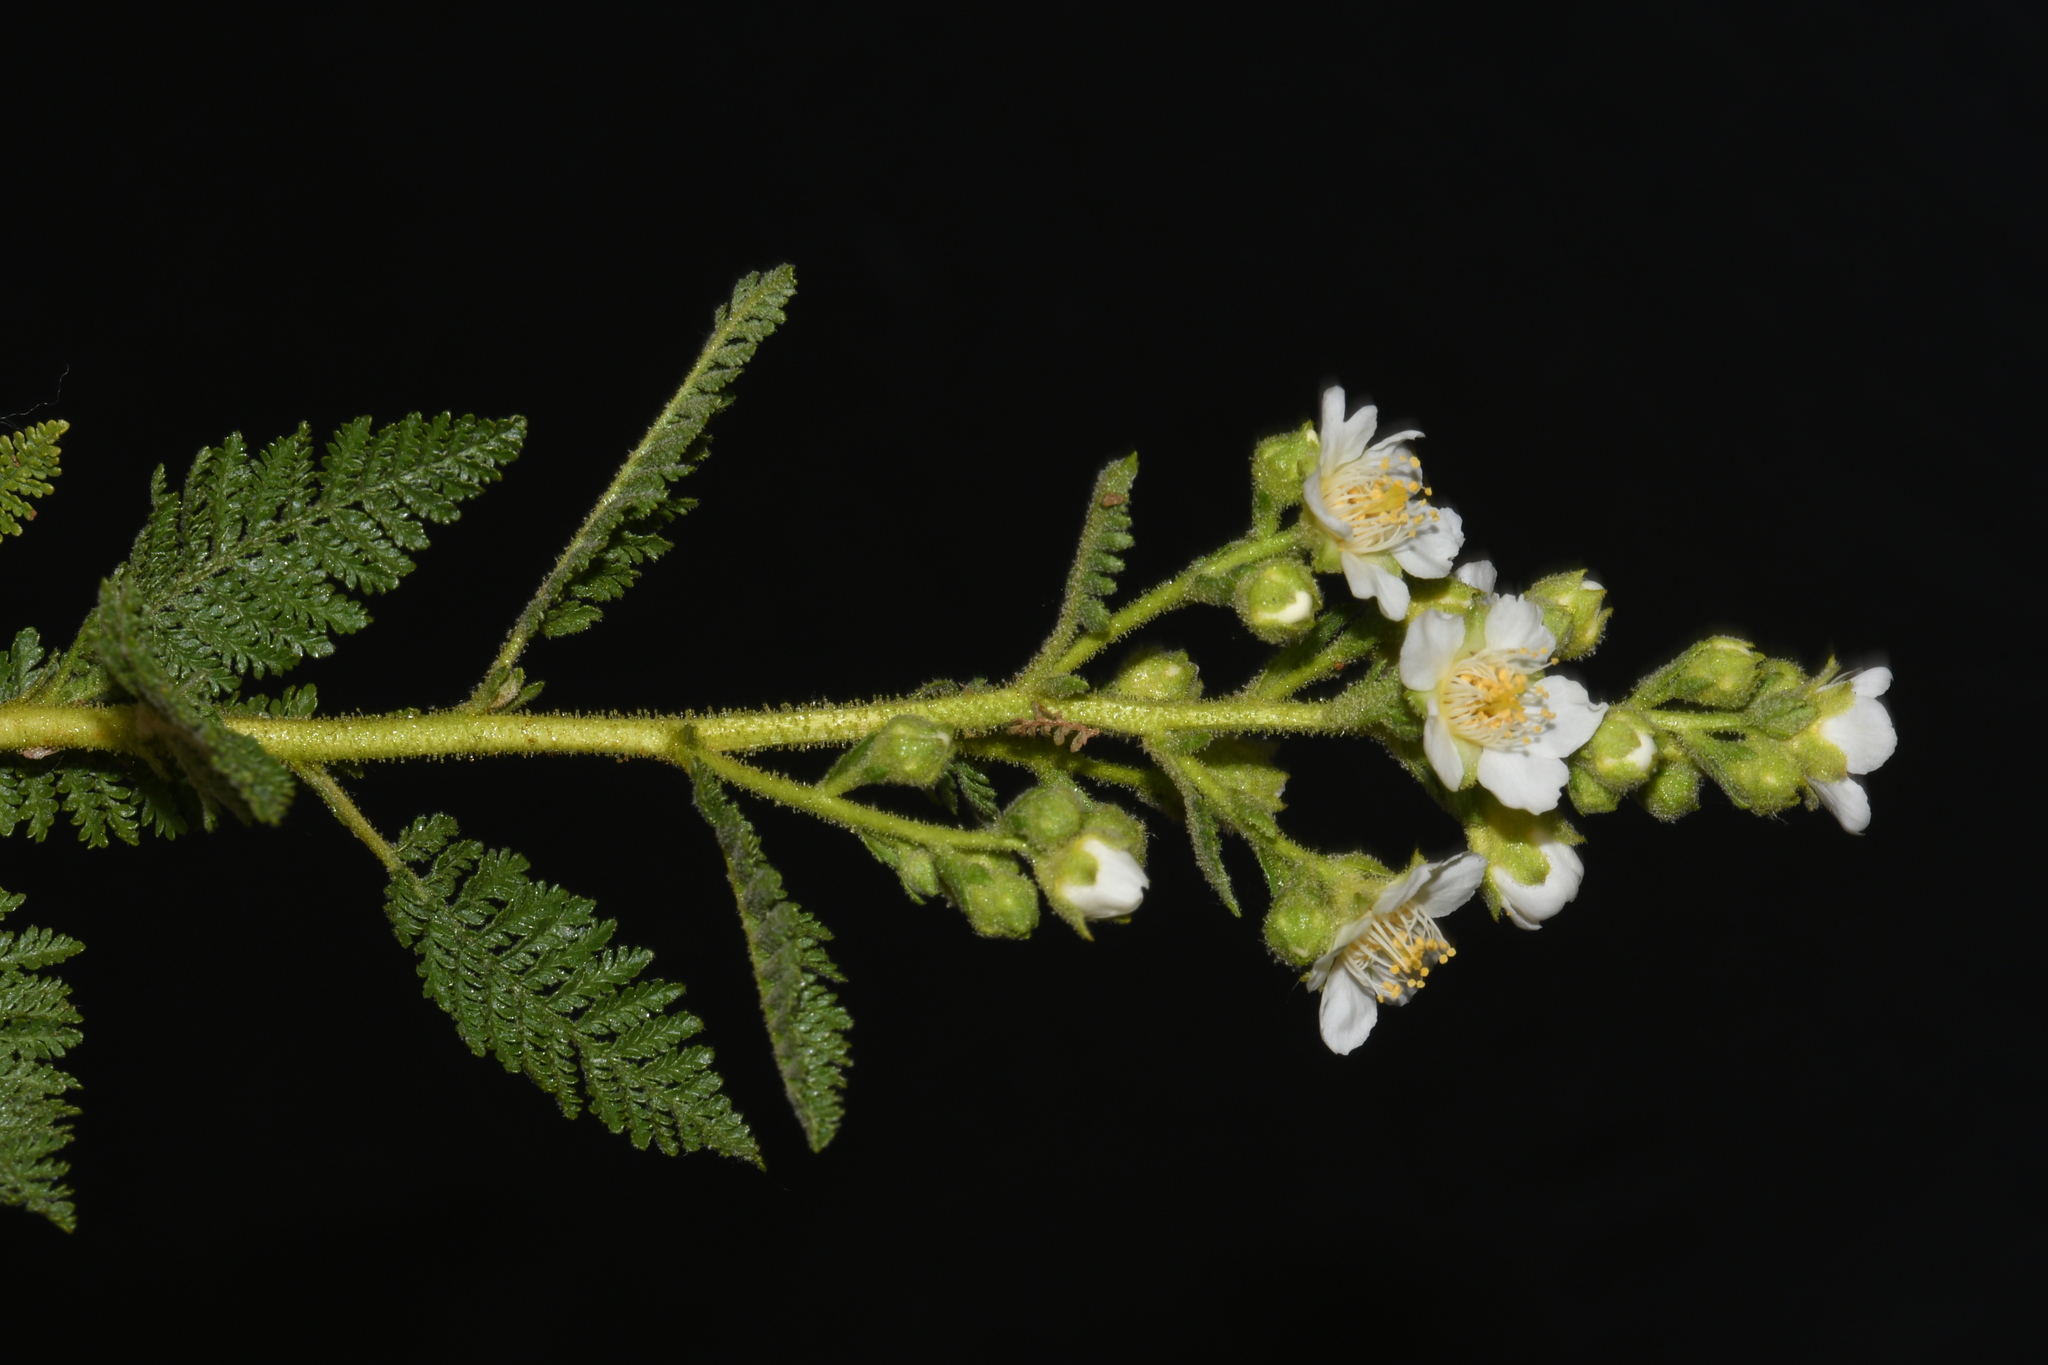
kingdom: Plantae
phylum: Tracheophyta
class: Magnoliopsida
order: Rosales
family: Rosaceae
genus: Chamaebatiaria
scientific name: Chamaebatiaria millefolium
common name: Fernbush
